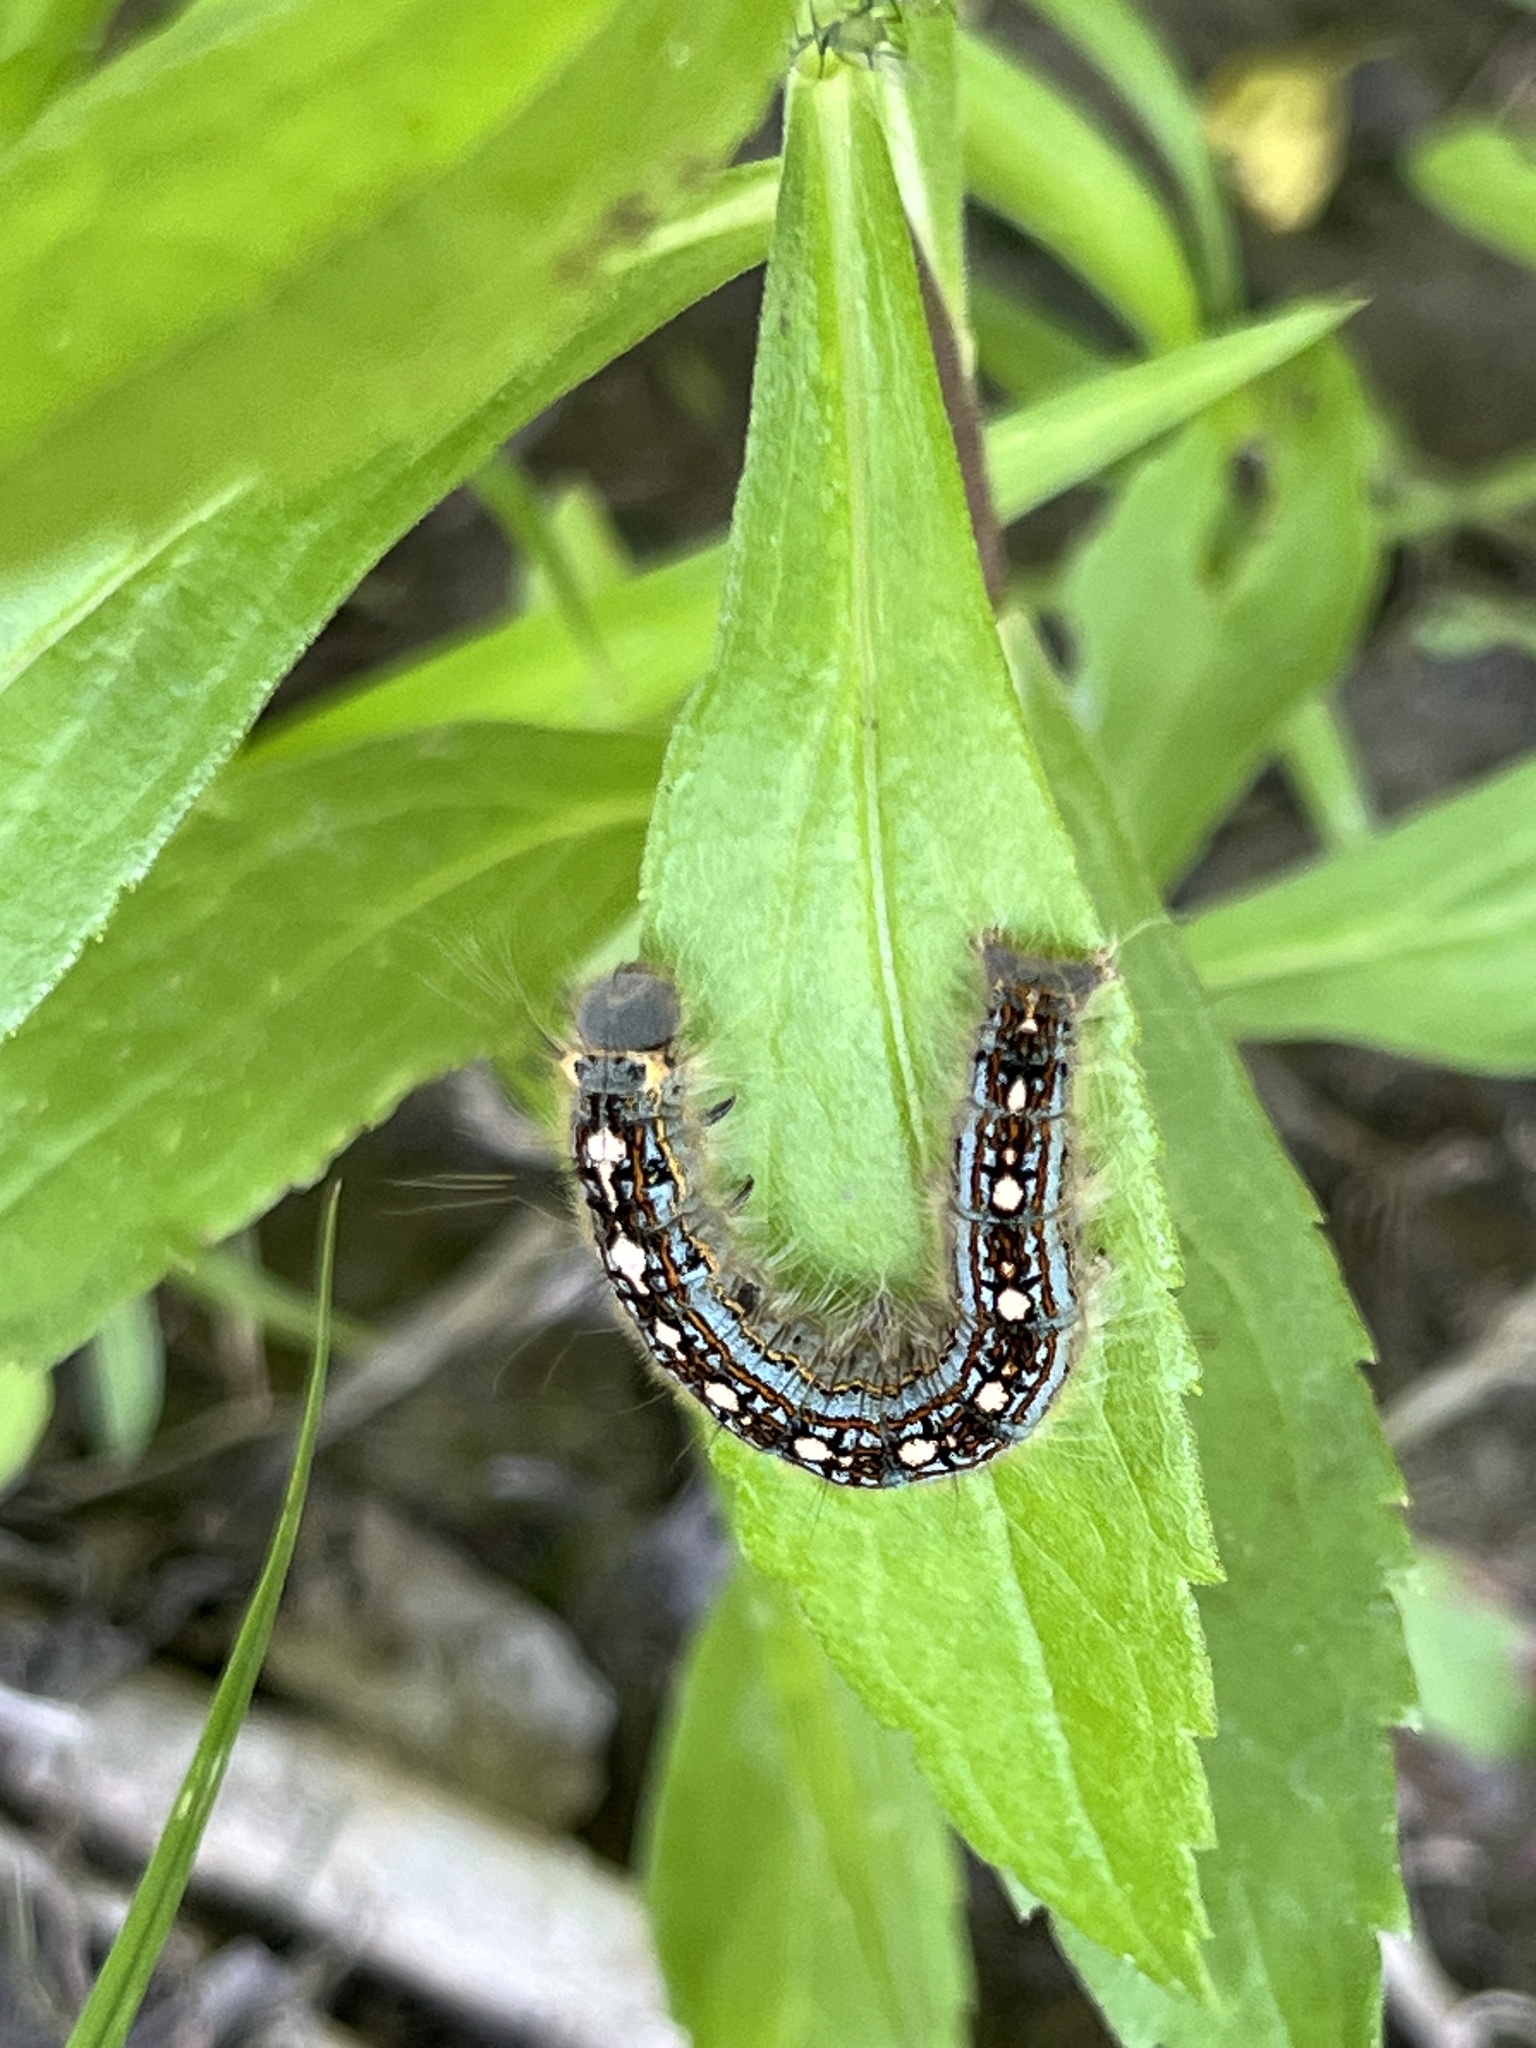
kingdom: Animalia
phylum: Arthropoda
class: Insecta
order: Lepidoptera
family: Lasiocampidae
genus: Malacosoma
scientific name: Malacosoma disstria
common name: Forest tent caterpillar
